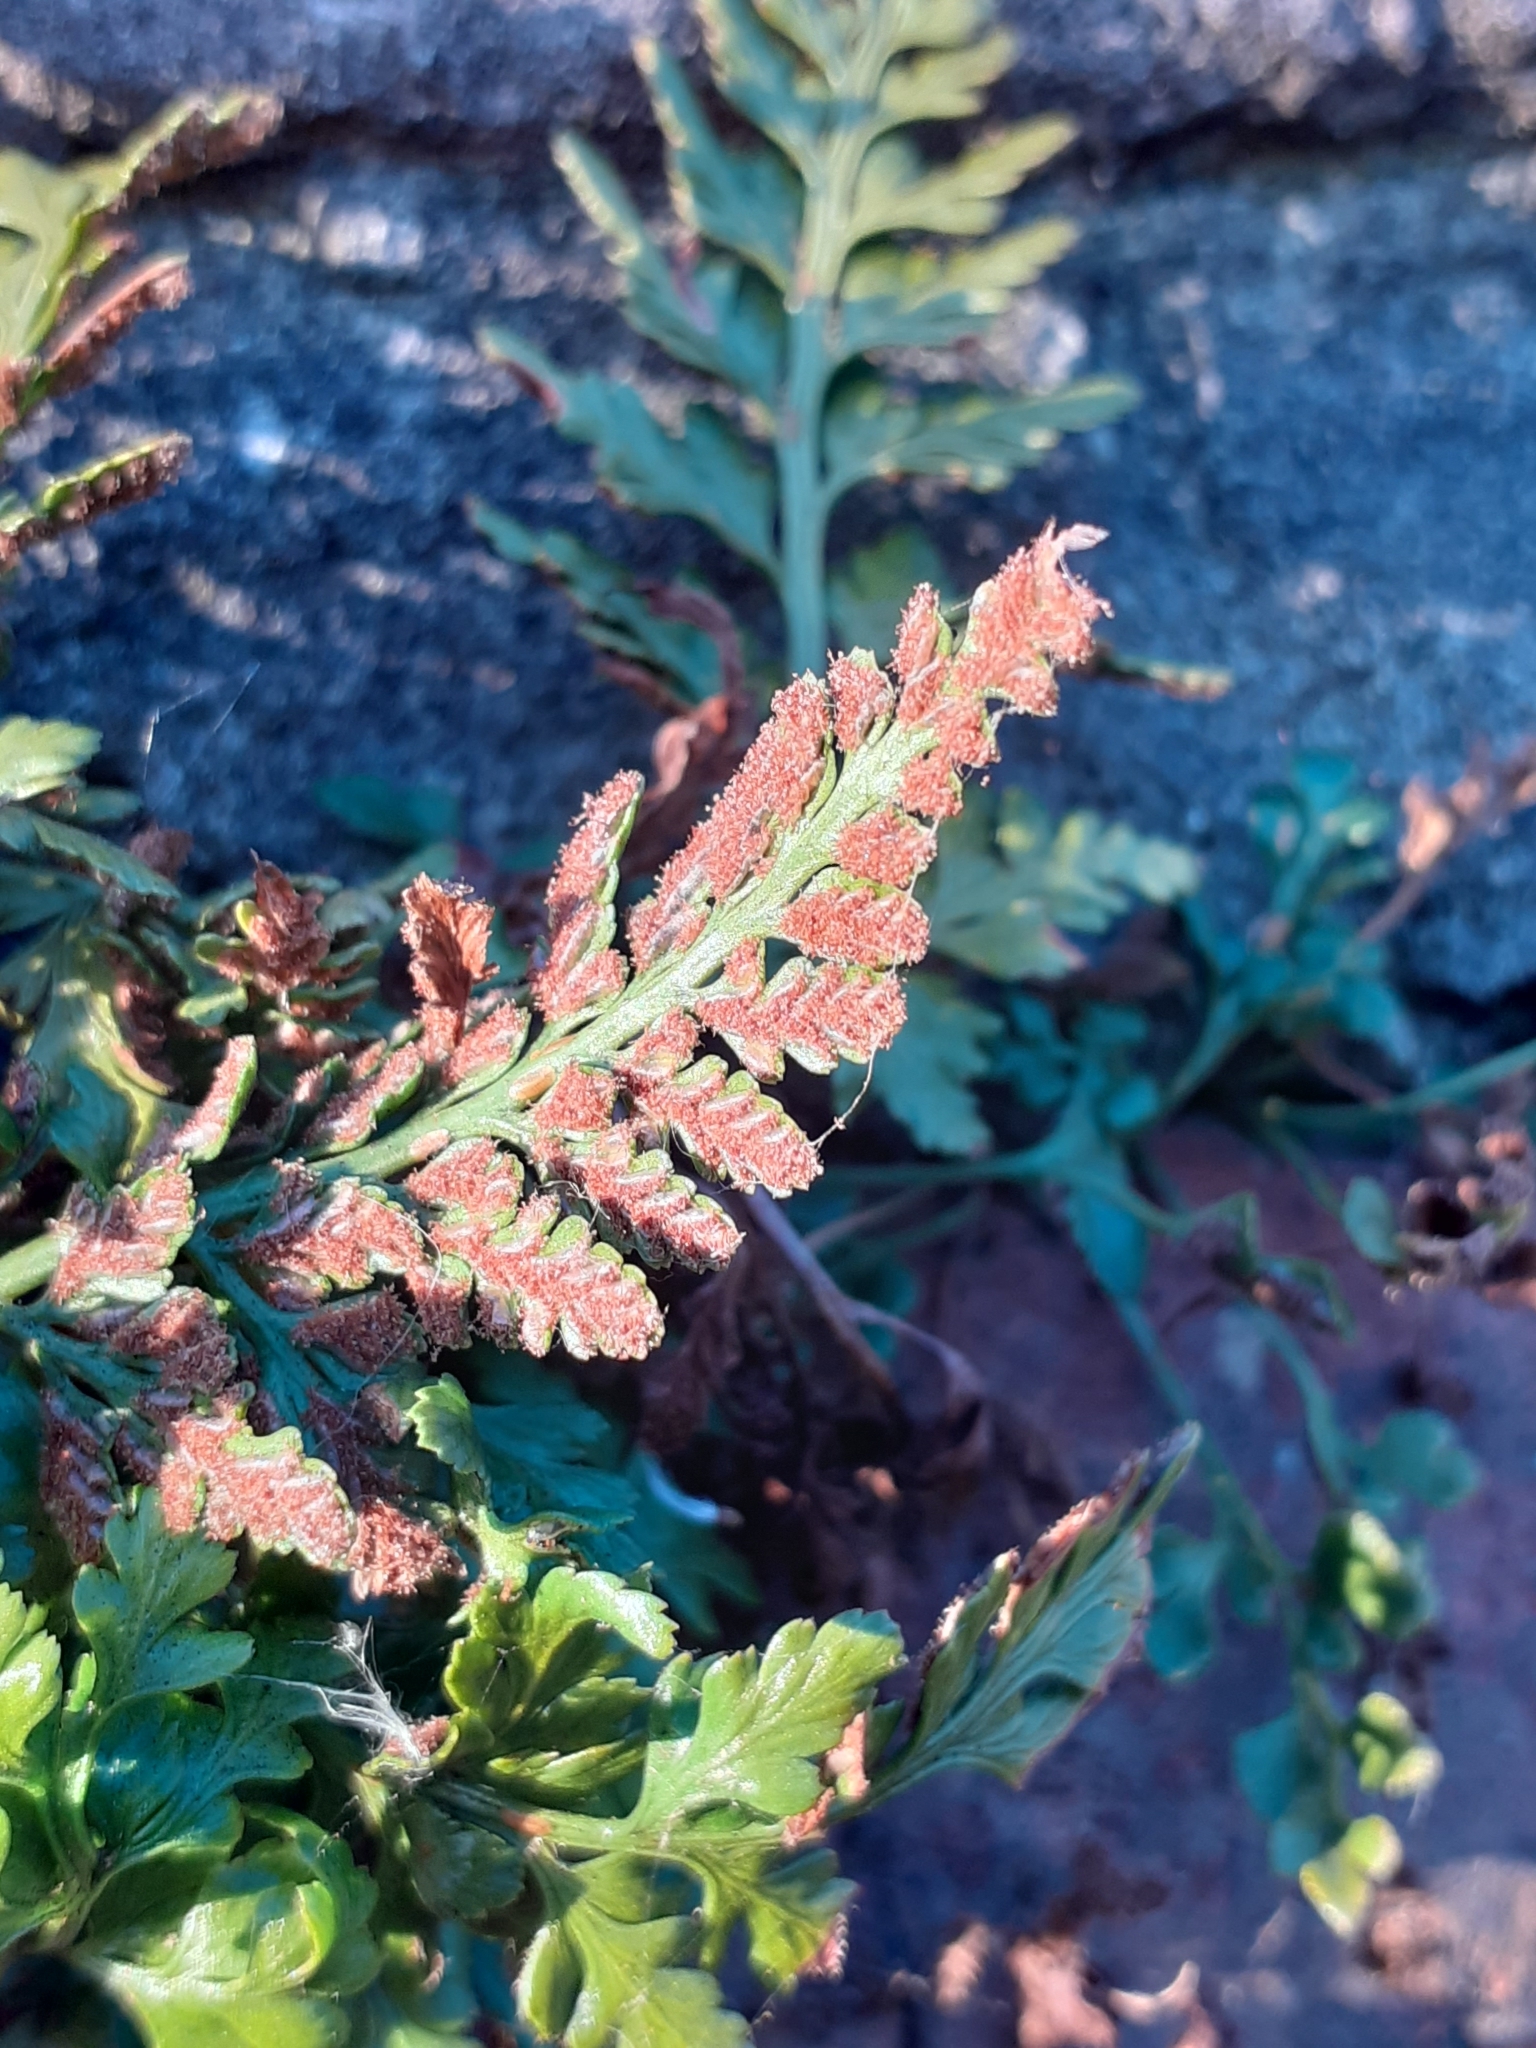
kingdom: Plantae
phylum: Tracheophyta
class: Polypodiopsida
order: Polypodiales
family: Aspleniaceae
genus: Asplenium
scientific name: Asplenium adiantum-nigrum
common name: Black spleenwort
